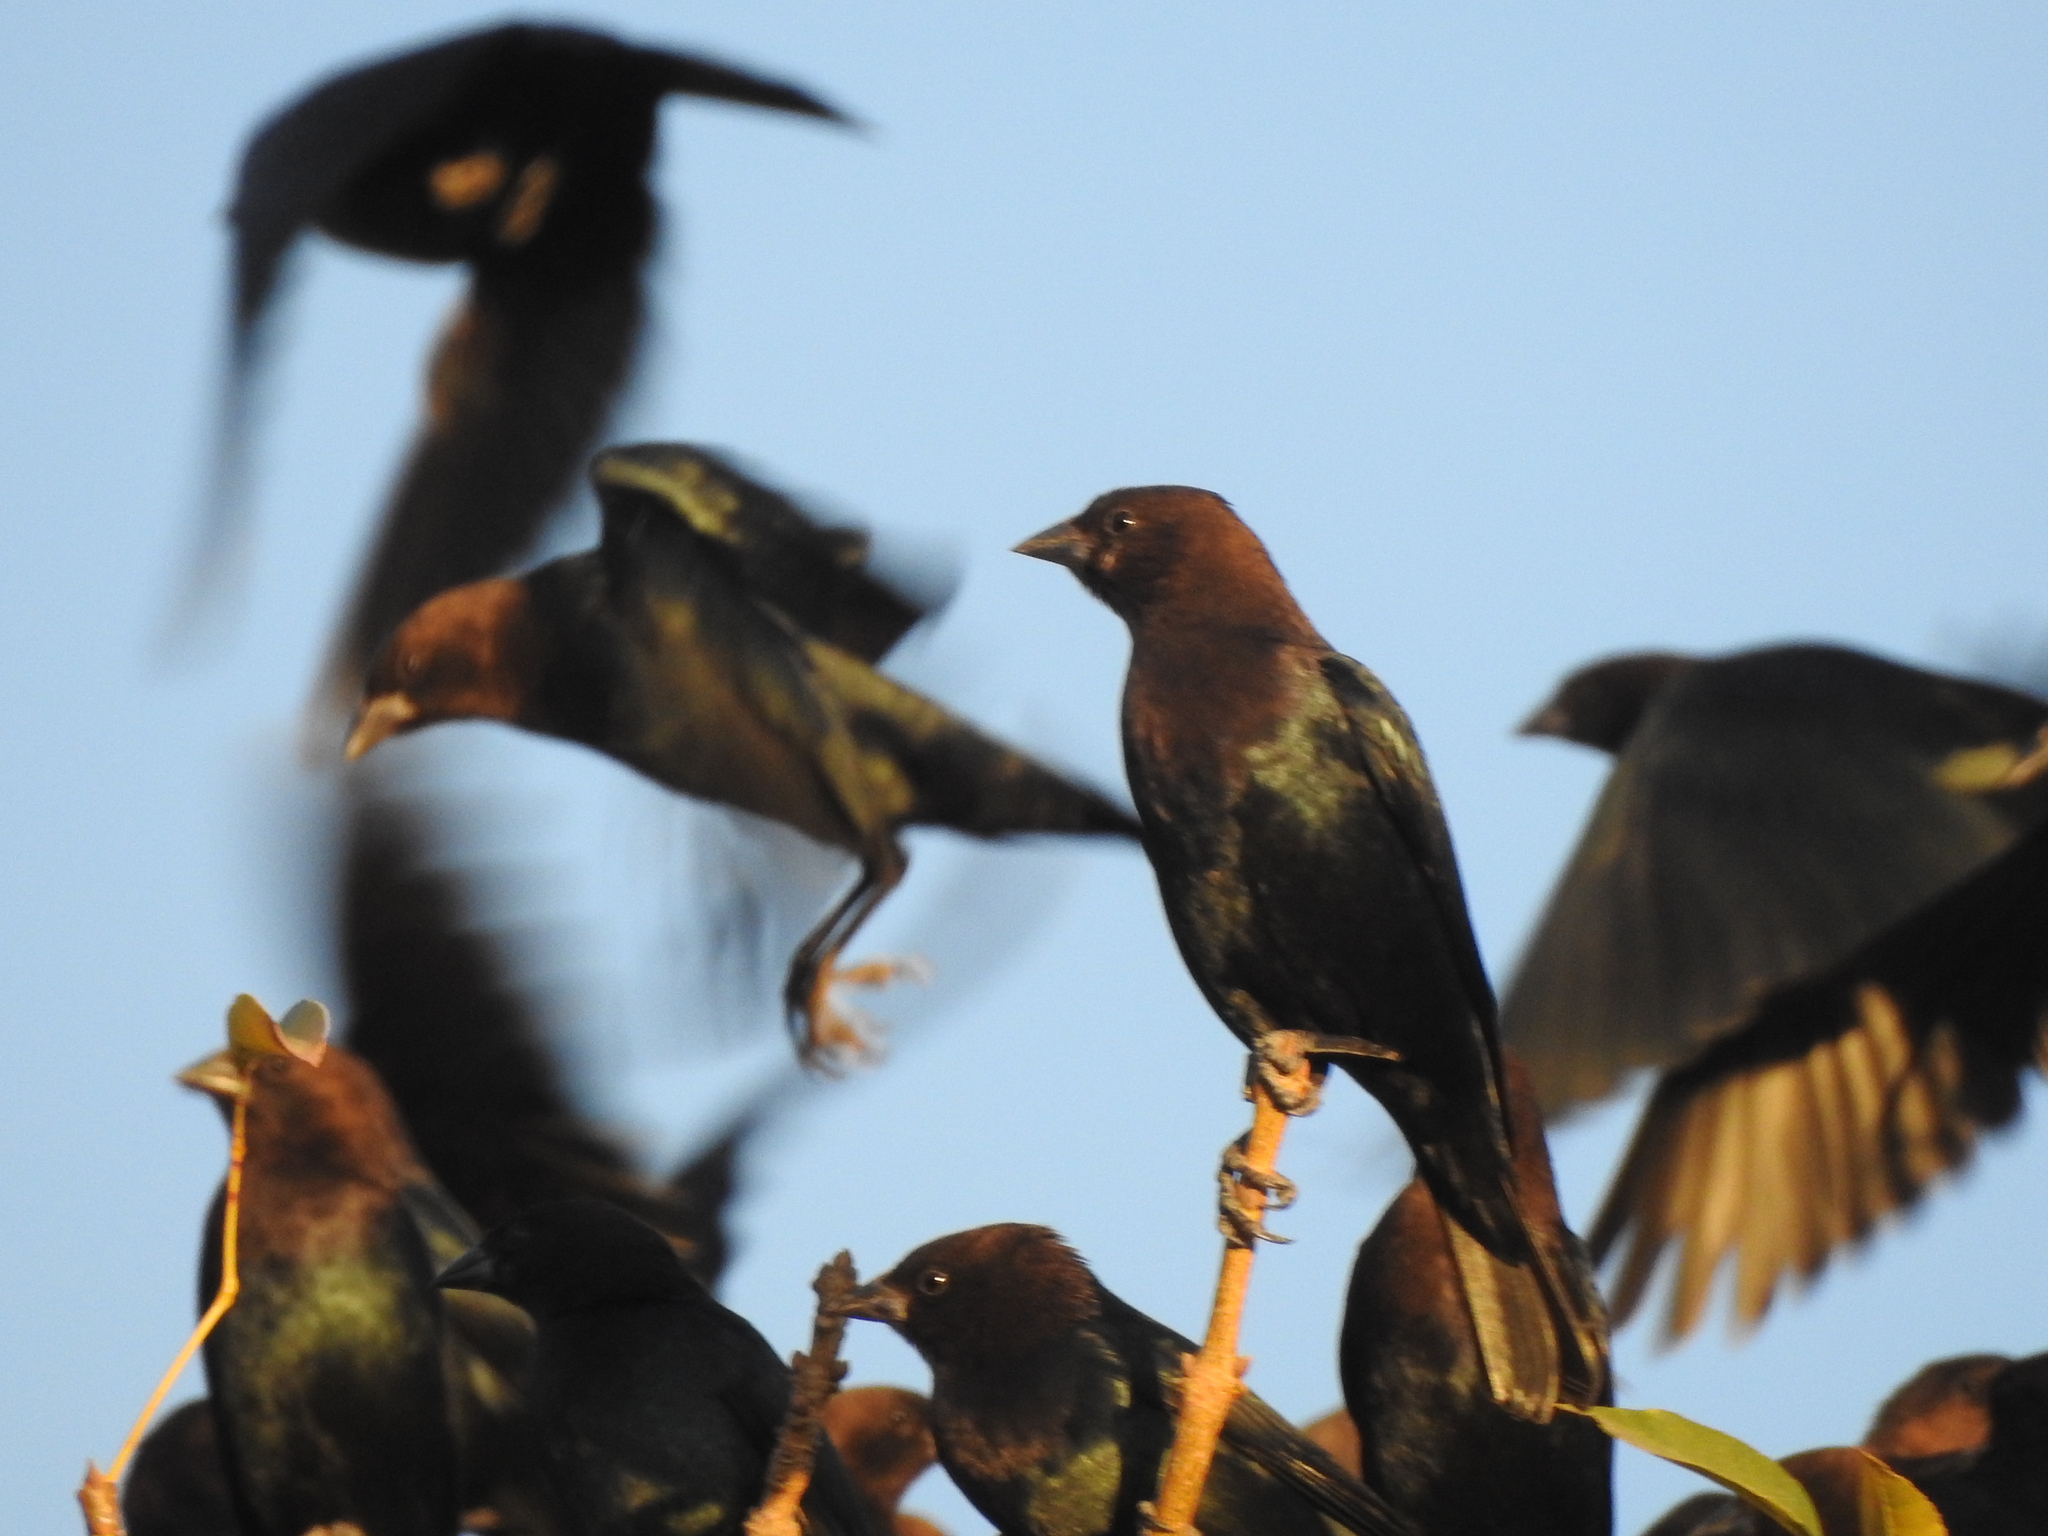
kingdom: Animalia
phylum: Chordata
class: Aves
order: Passeriformes
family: Icteridae
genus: Molothrus
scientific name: Molothrus ater
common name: Brown-headed cowbird
